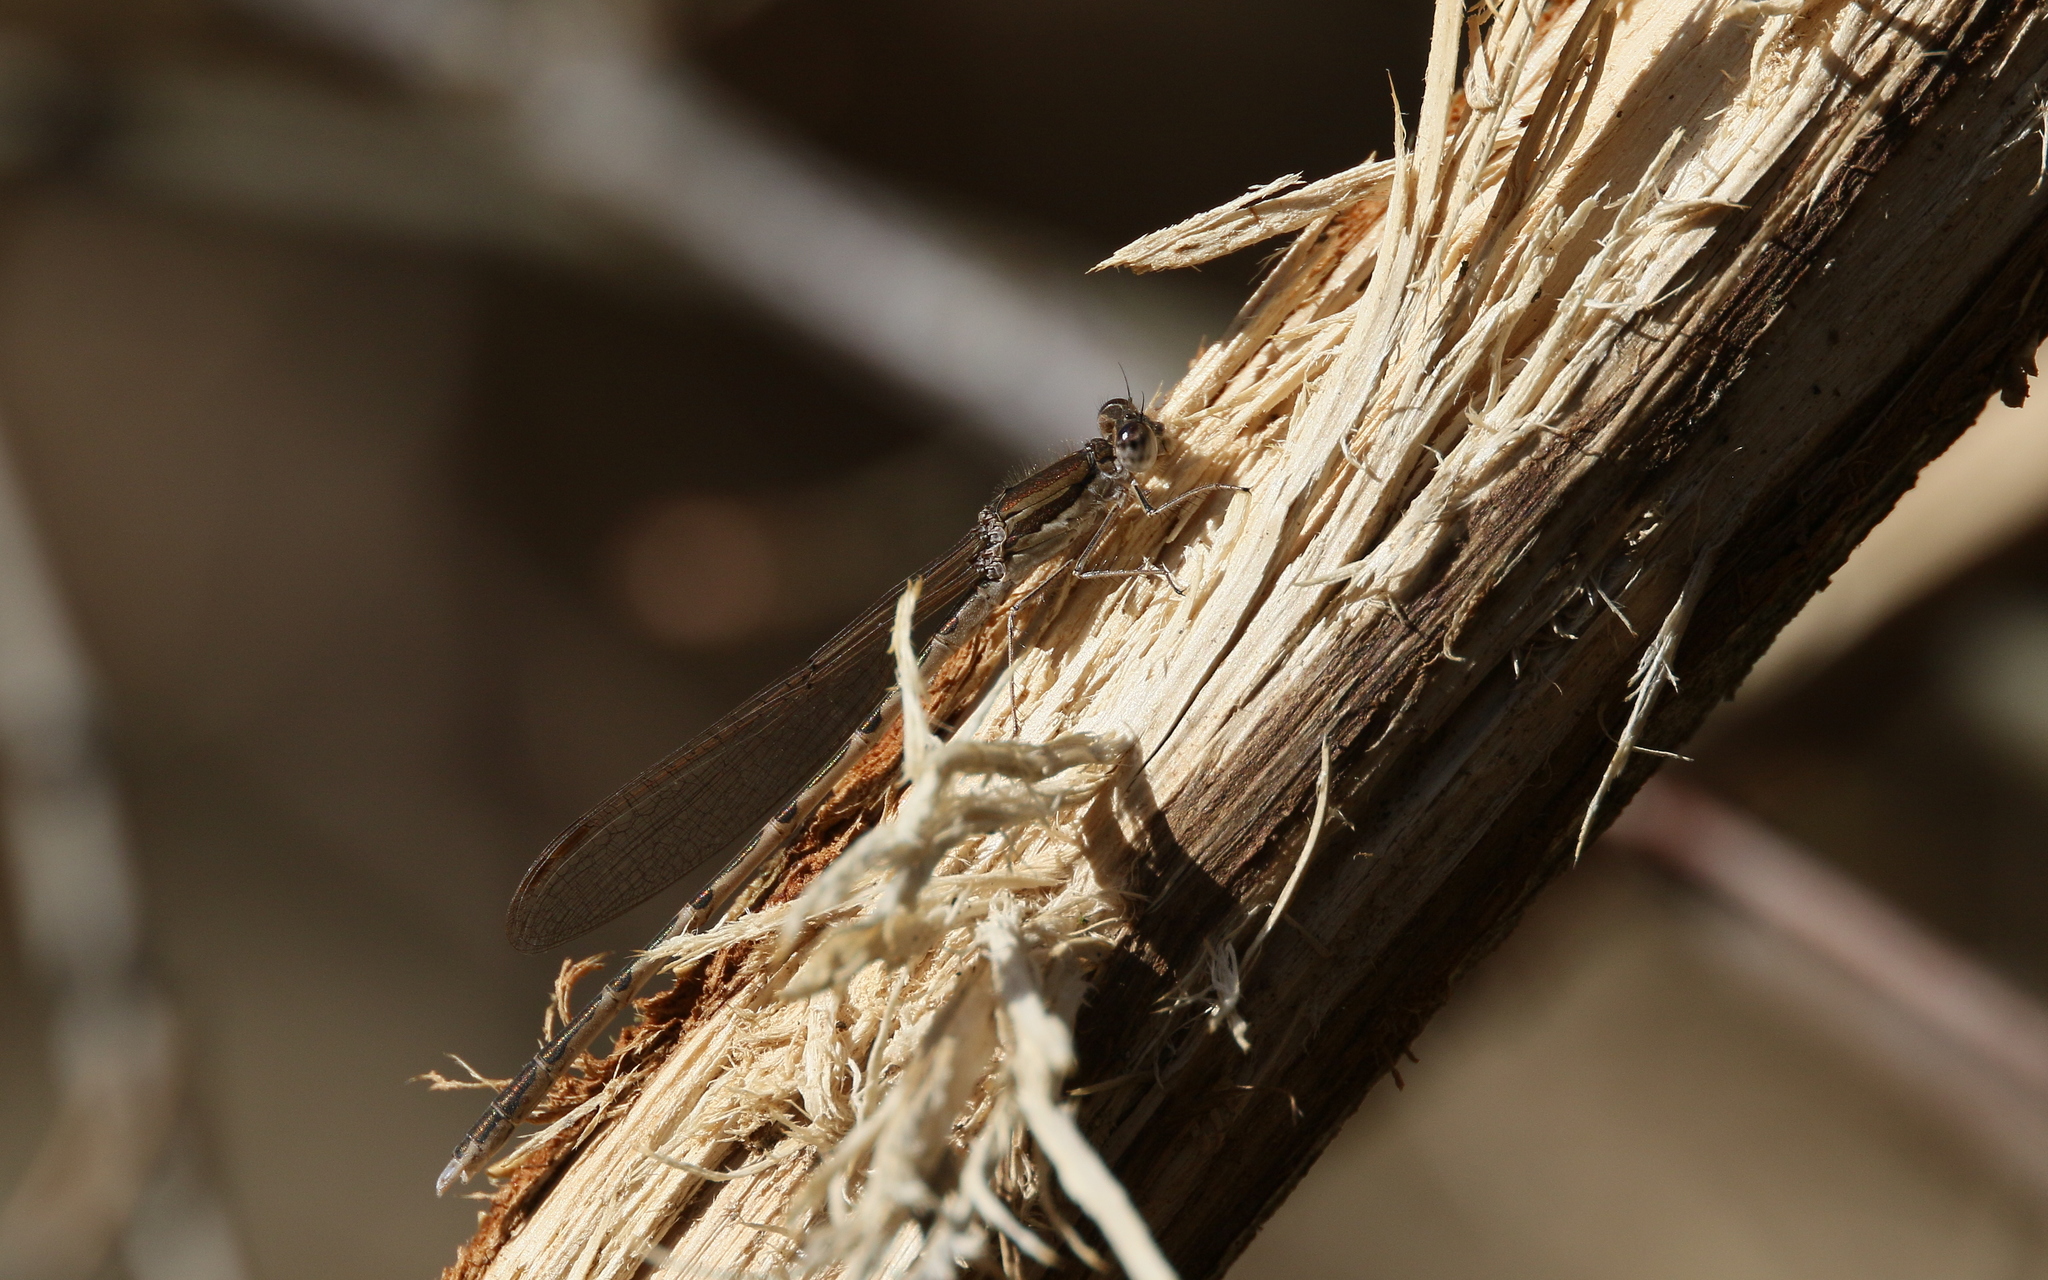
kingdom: Animalia
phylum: Arthropoda
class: Insecta
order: Odonata
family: Lestidae
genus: Sympecma
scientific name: Sympecma fusca
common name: Common winter damsel
